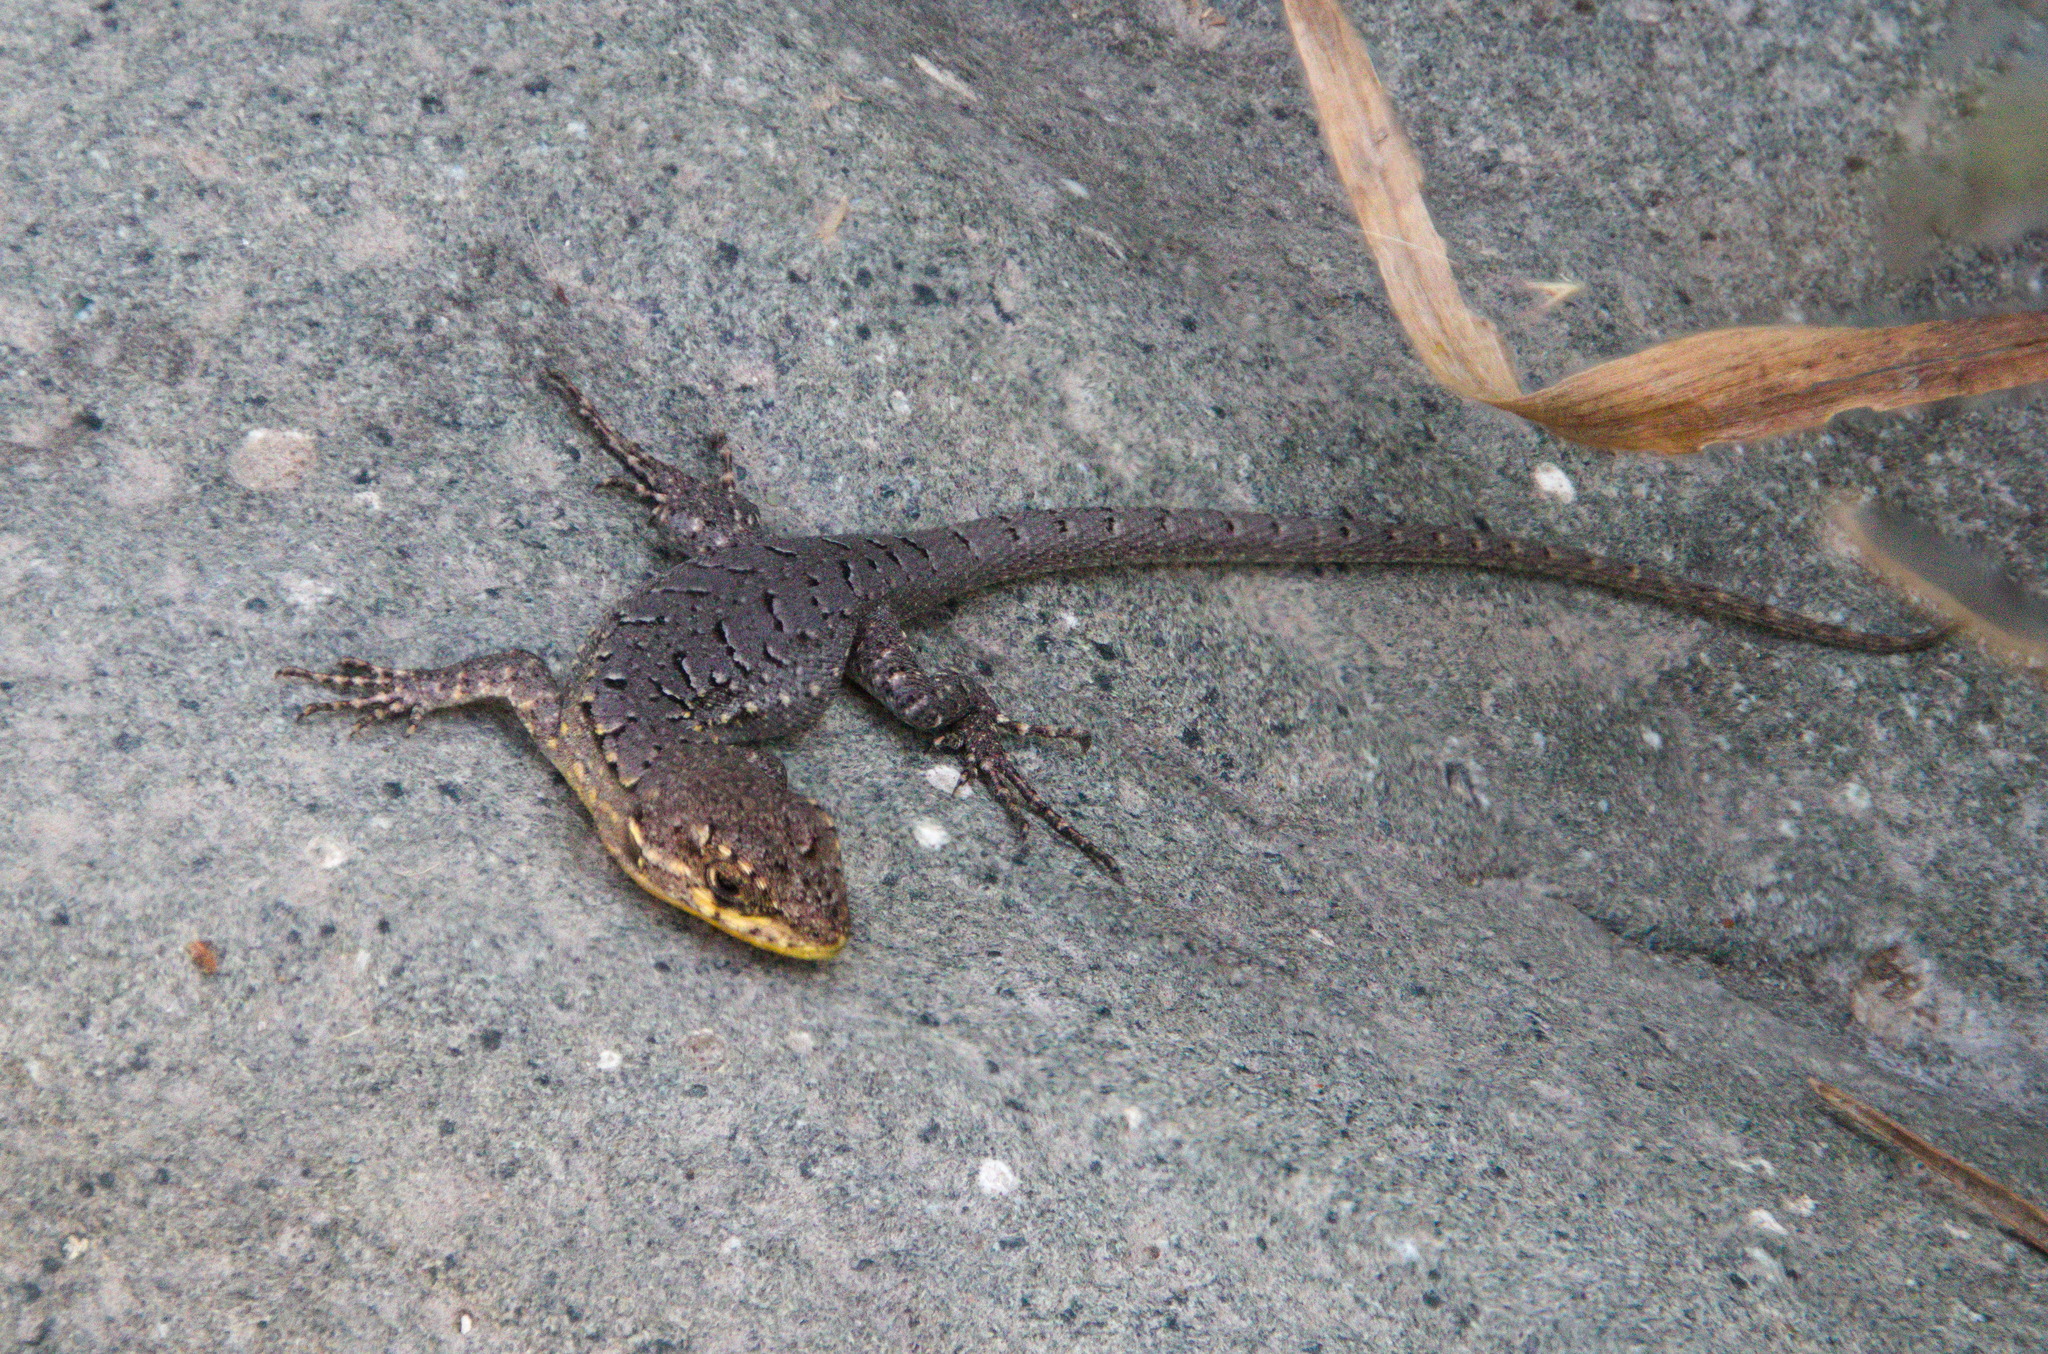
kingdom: Animalia
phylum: Chordata
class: Squamata
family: Liolaemidae
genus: Liolaemus
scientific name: Liolaemus tenuis
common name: Thin tree iguana
